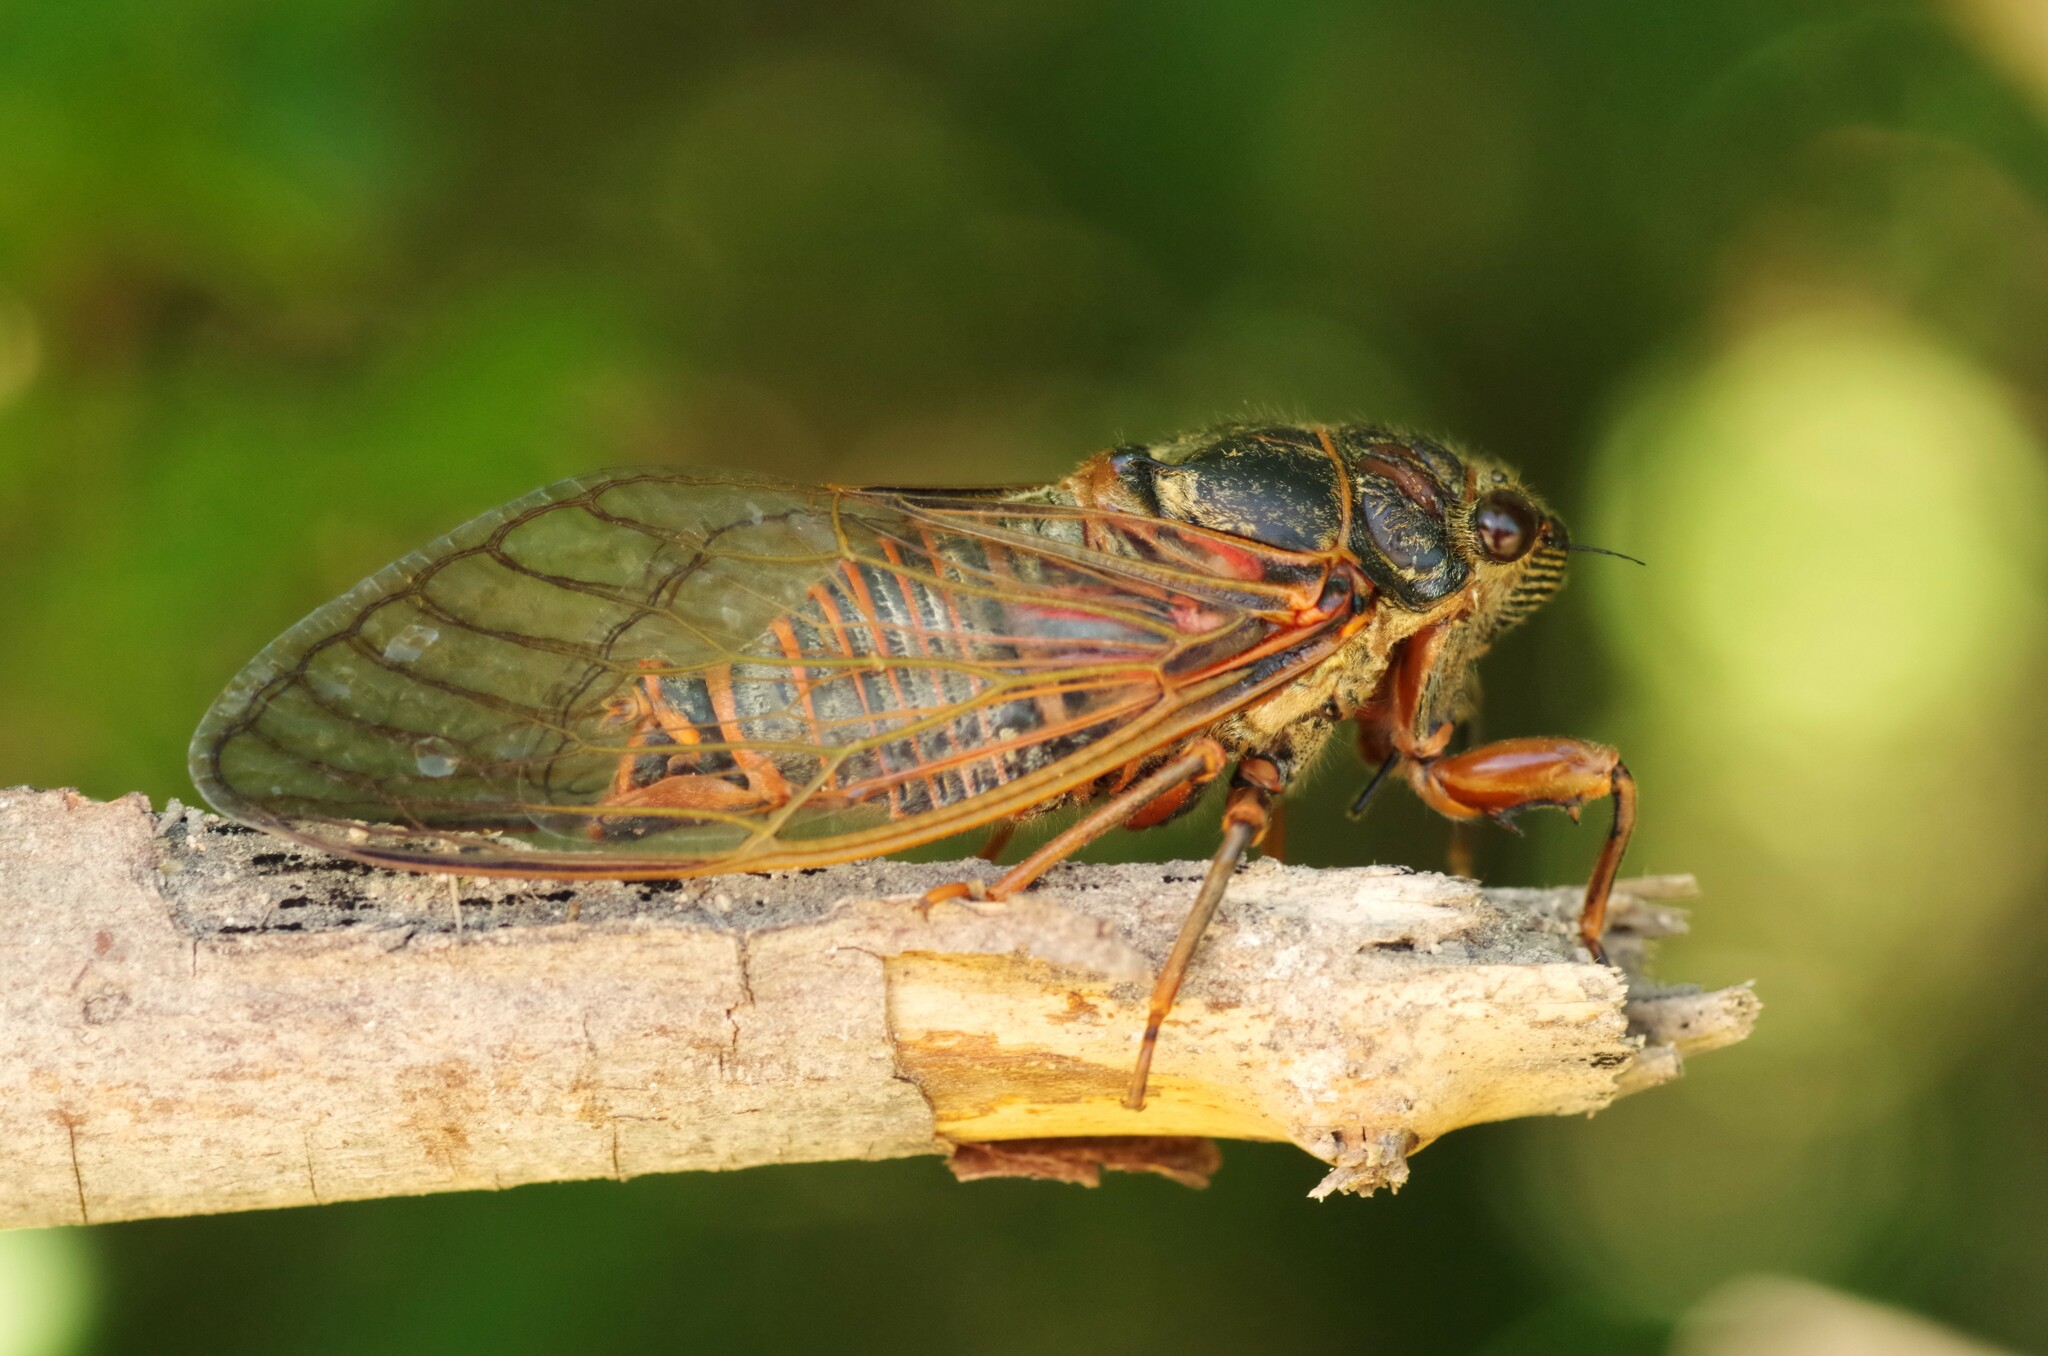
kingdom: Animalia
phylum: Arthropoda
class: Insecta
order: Hemiptera
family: Cicadidae
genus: Tibicina
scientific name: Tibicina haematodes
